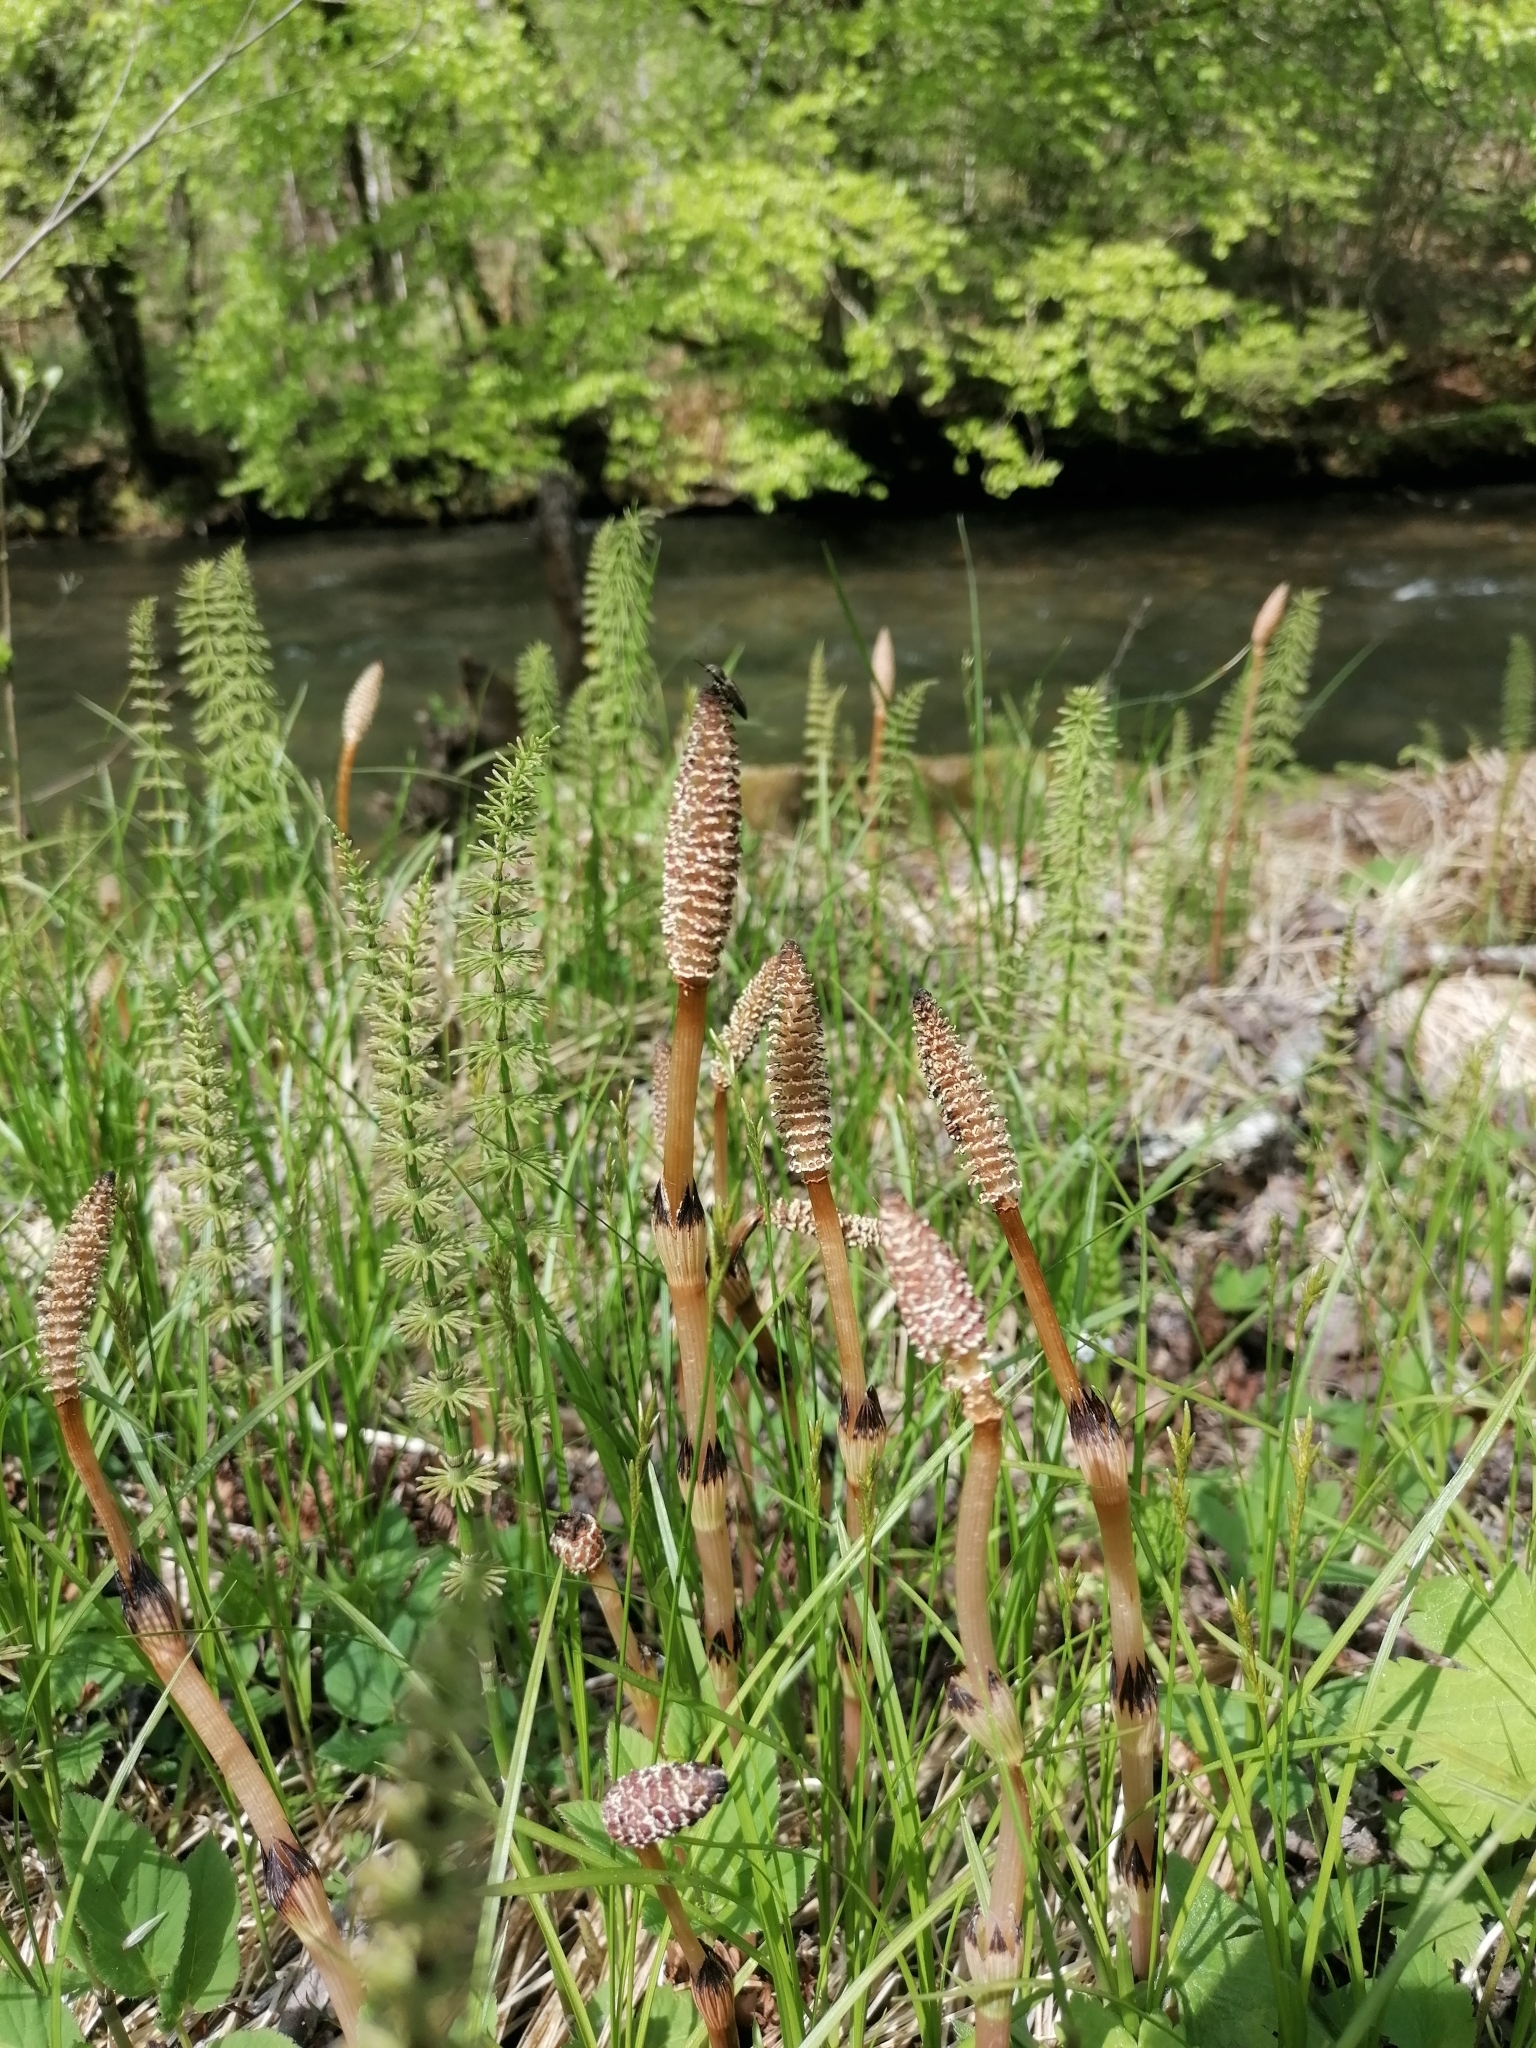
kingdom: Plantae
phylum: Tracheophyta
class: Polypodiopsida
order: Equisetales
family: Equisetaceae
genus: Equisetum
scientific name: Equisetum arvense
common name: Field horsetail
